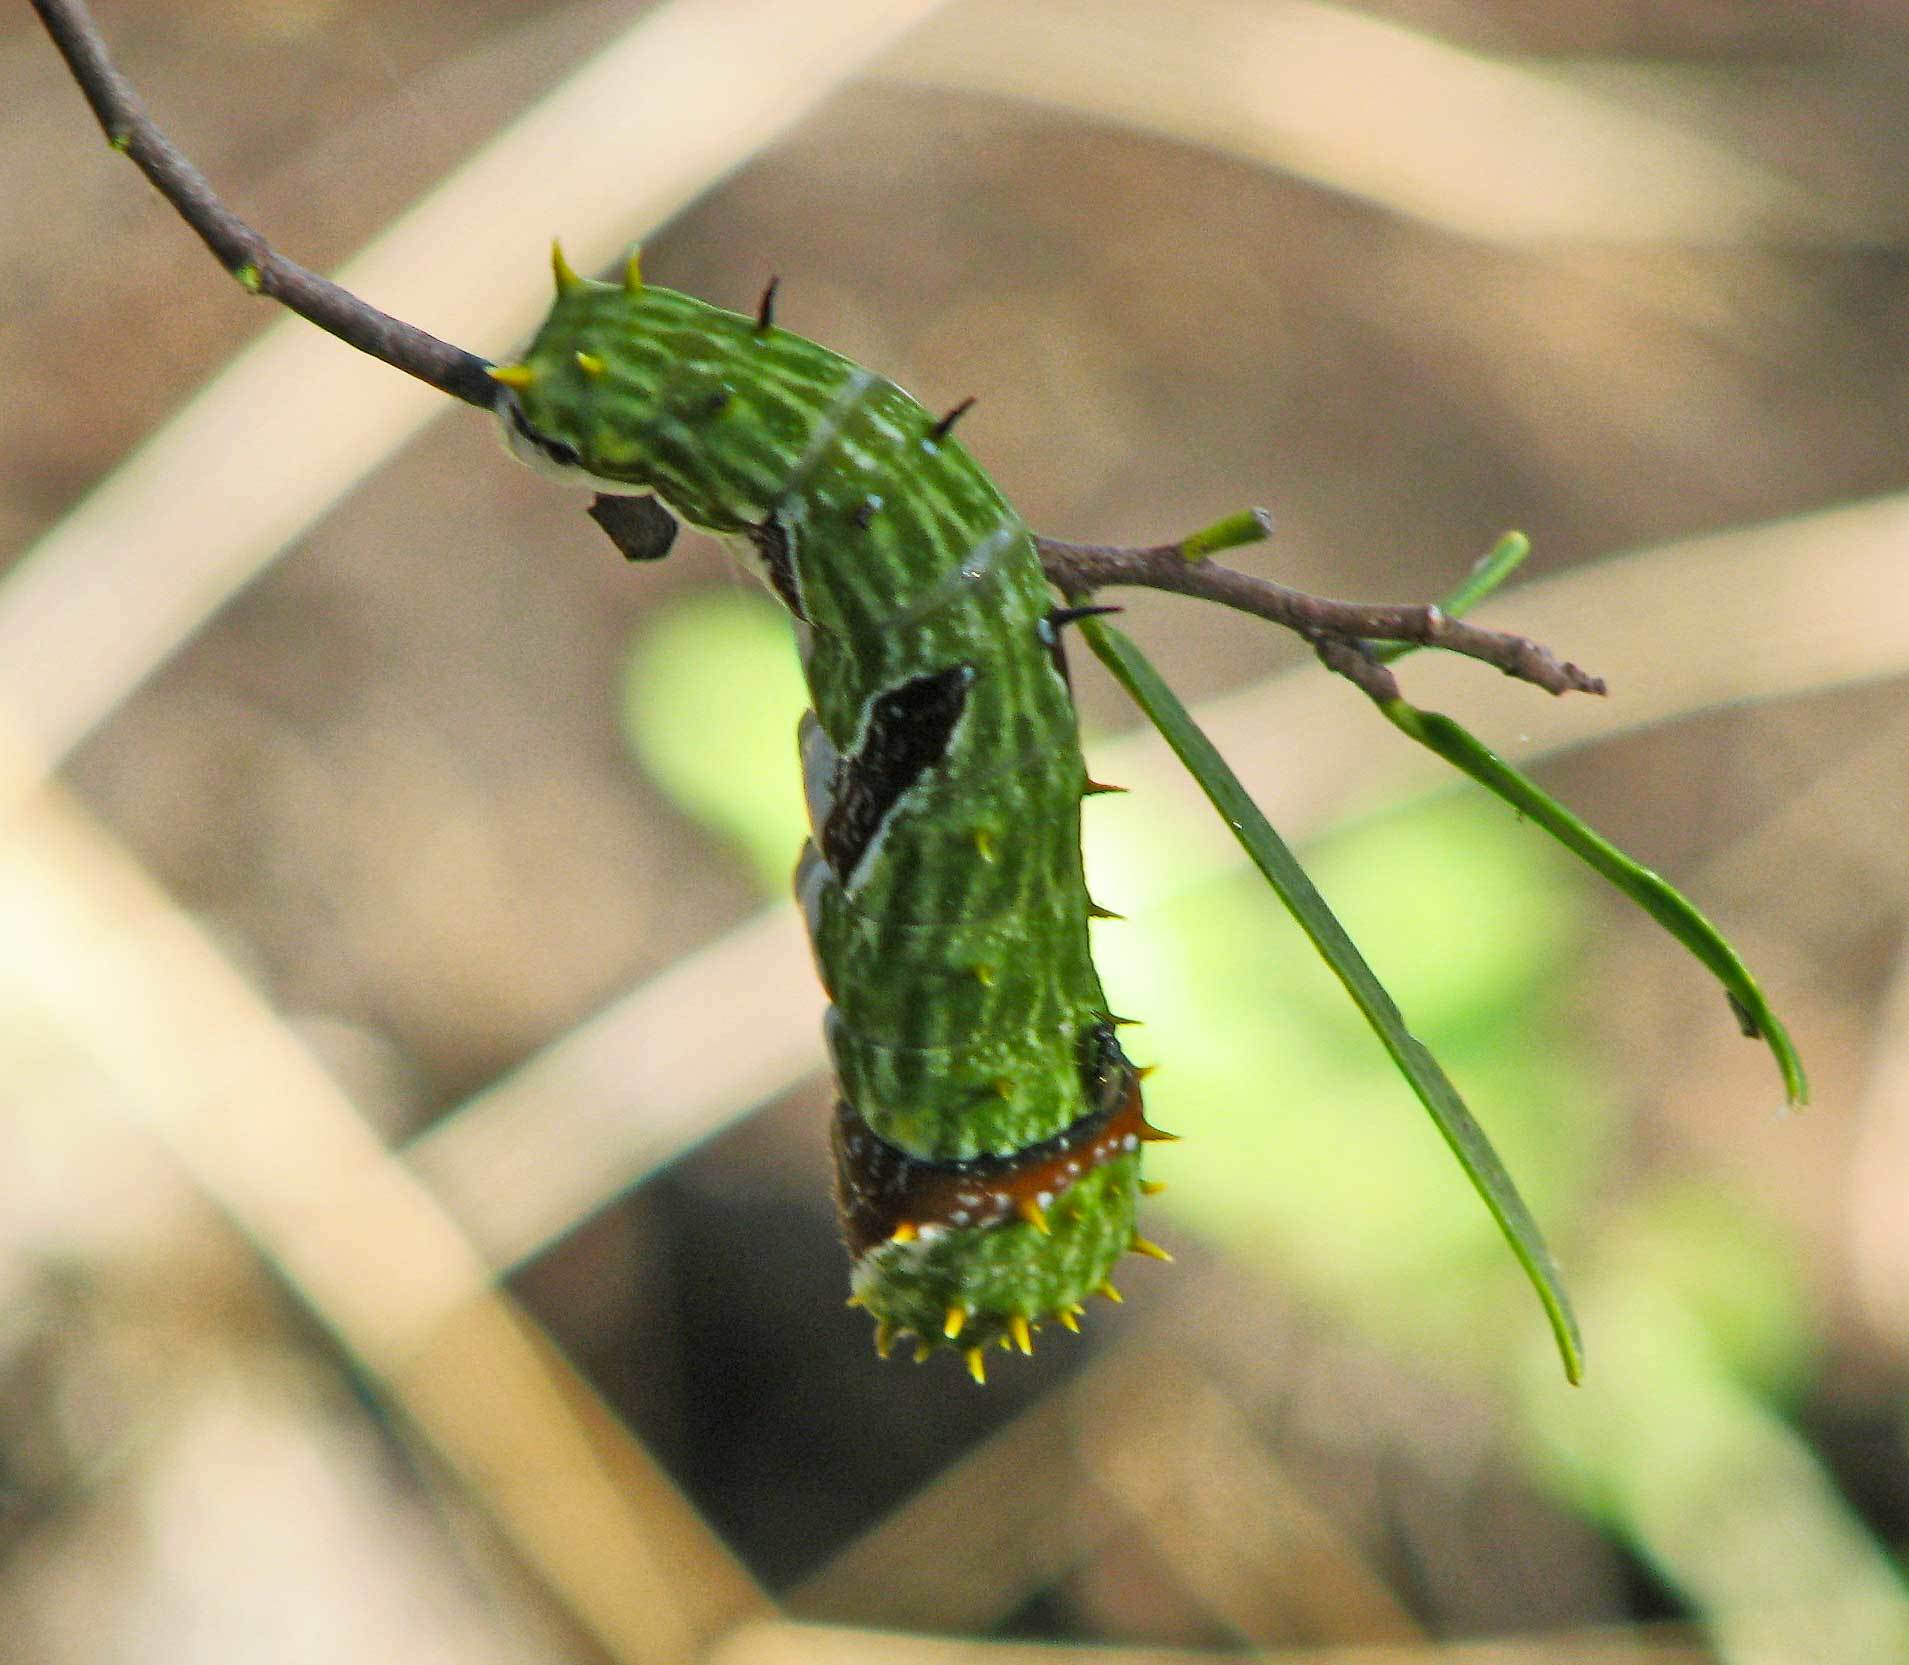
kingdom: Animalia
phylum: Arthropoda
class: Insecta
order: Lepidoptera
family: Papilionidae
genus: Papilio
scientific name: Papilio aegeus
